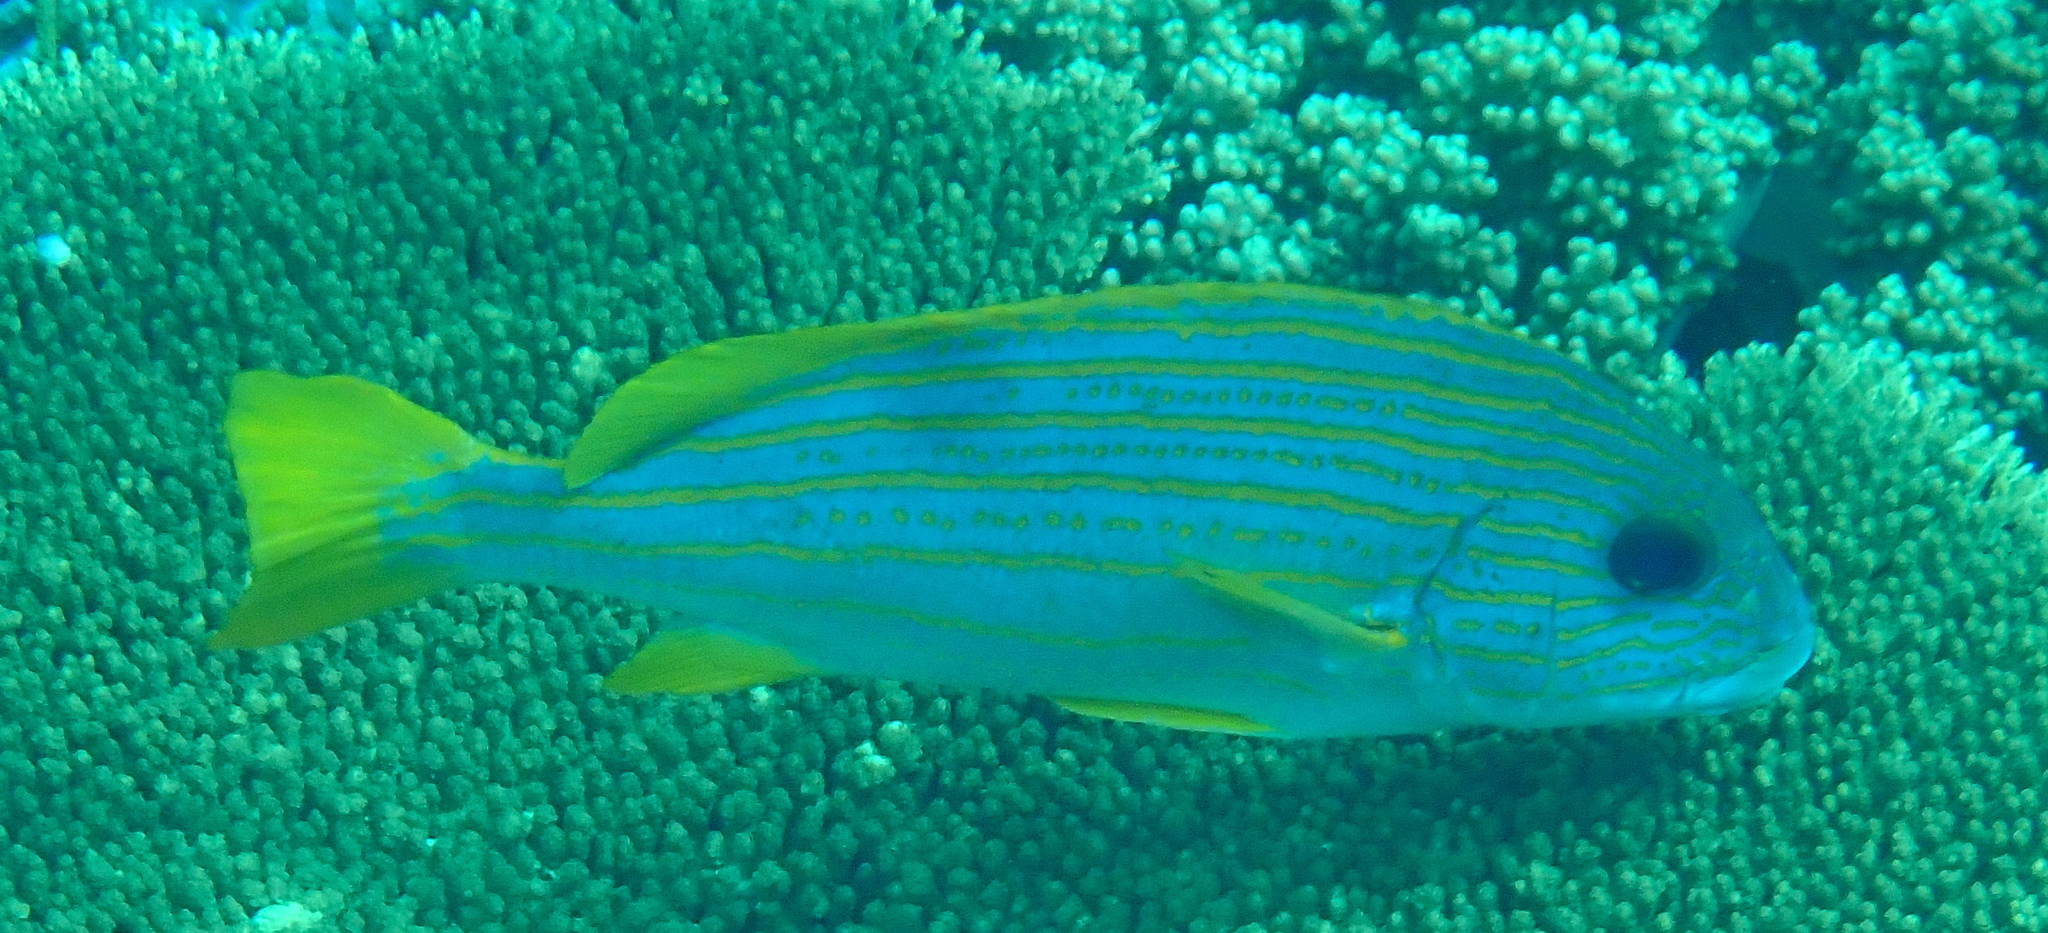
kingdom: Animalia
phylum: Chordata
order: Perciformes
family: Haemulidae
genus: Plectorhinchus
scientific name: Plectorhinchus chrysotaenia
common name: Celebes sweetlips
